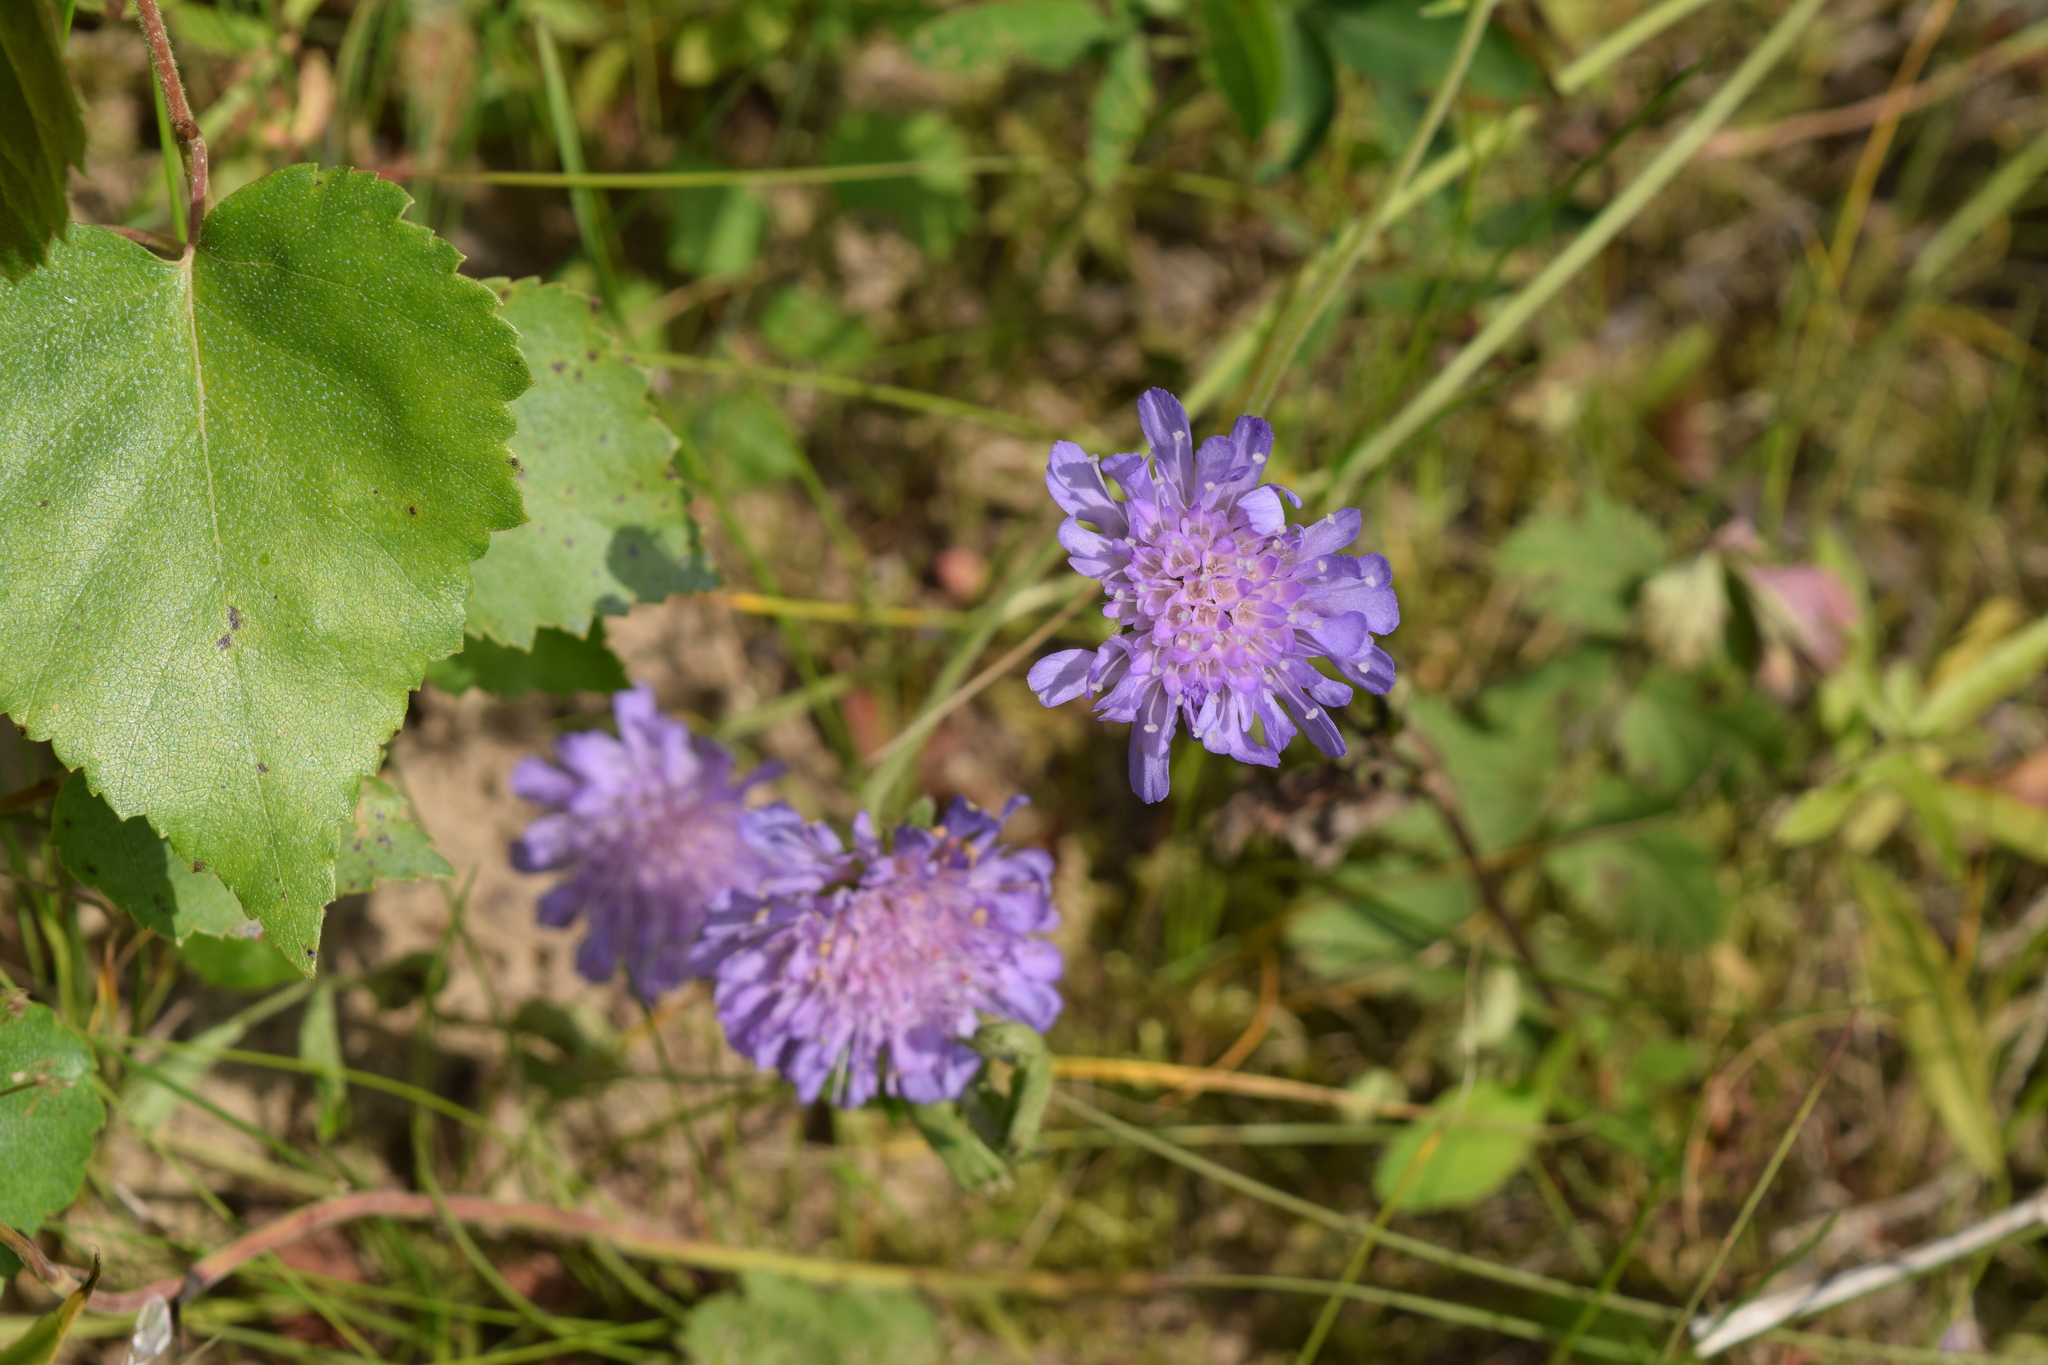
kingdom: Plantae
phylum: Tracheophyta
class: Magnoliopsida
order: Dipsacales
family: Caprifoliaceae
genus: Knautia
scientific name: Knautia arvensis
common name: Field scabiosa
